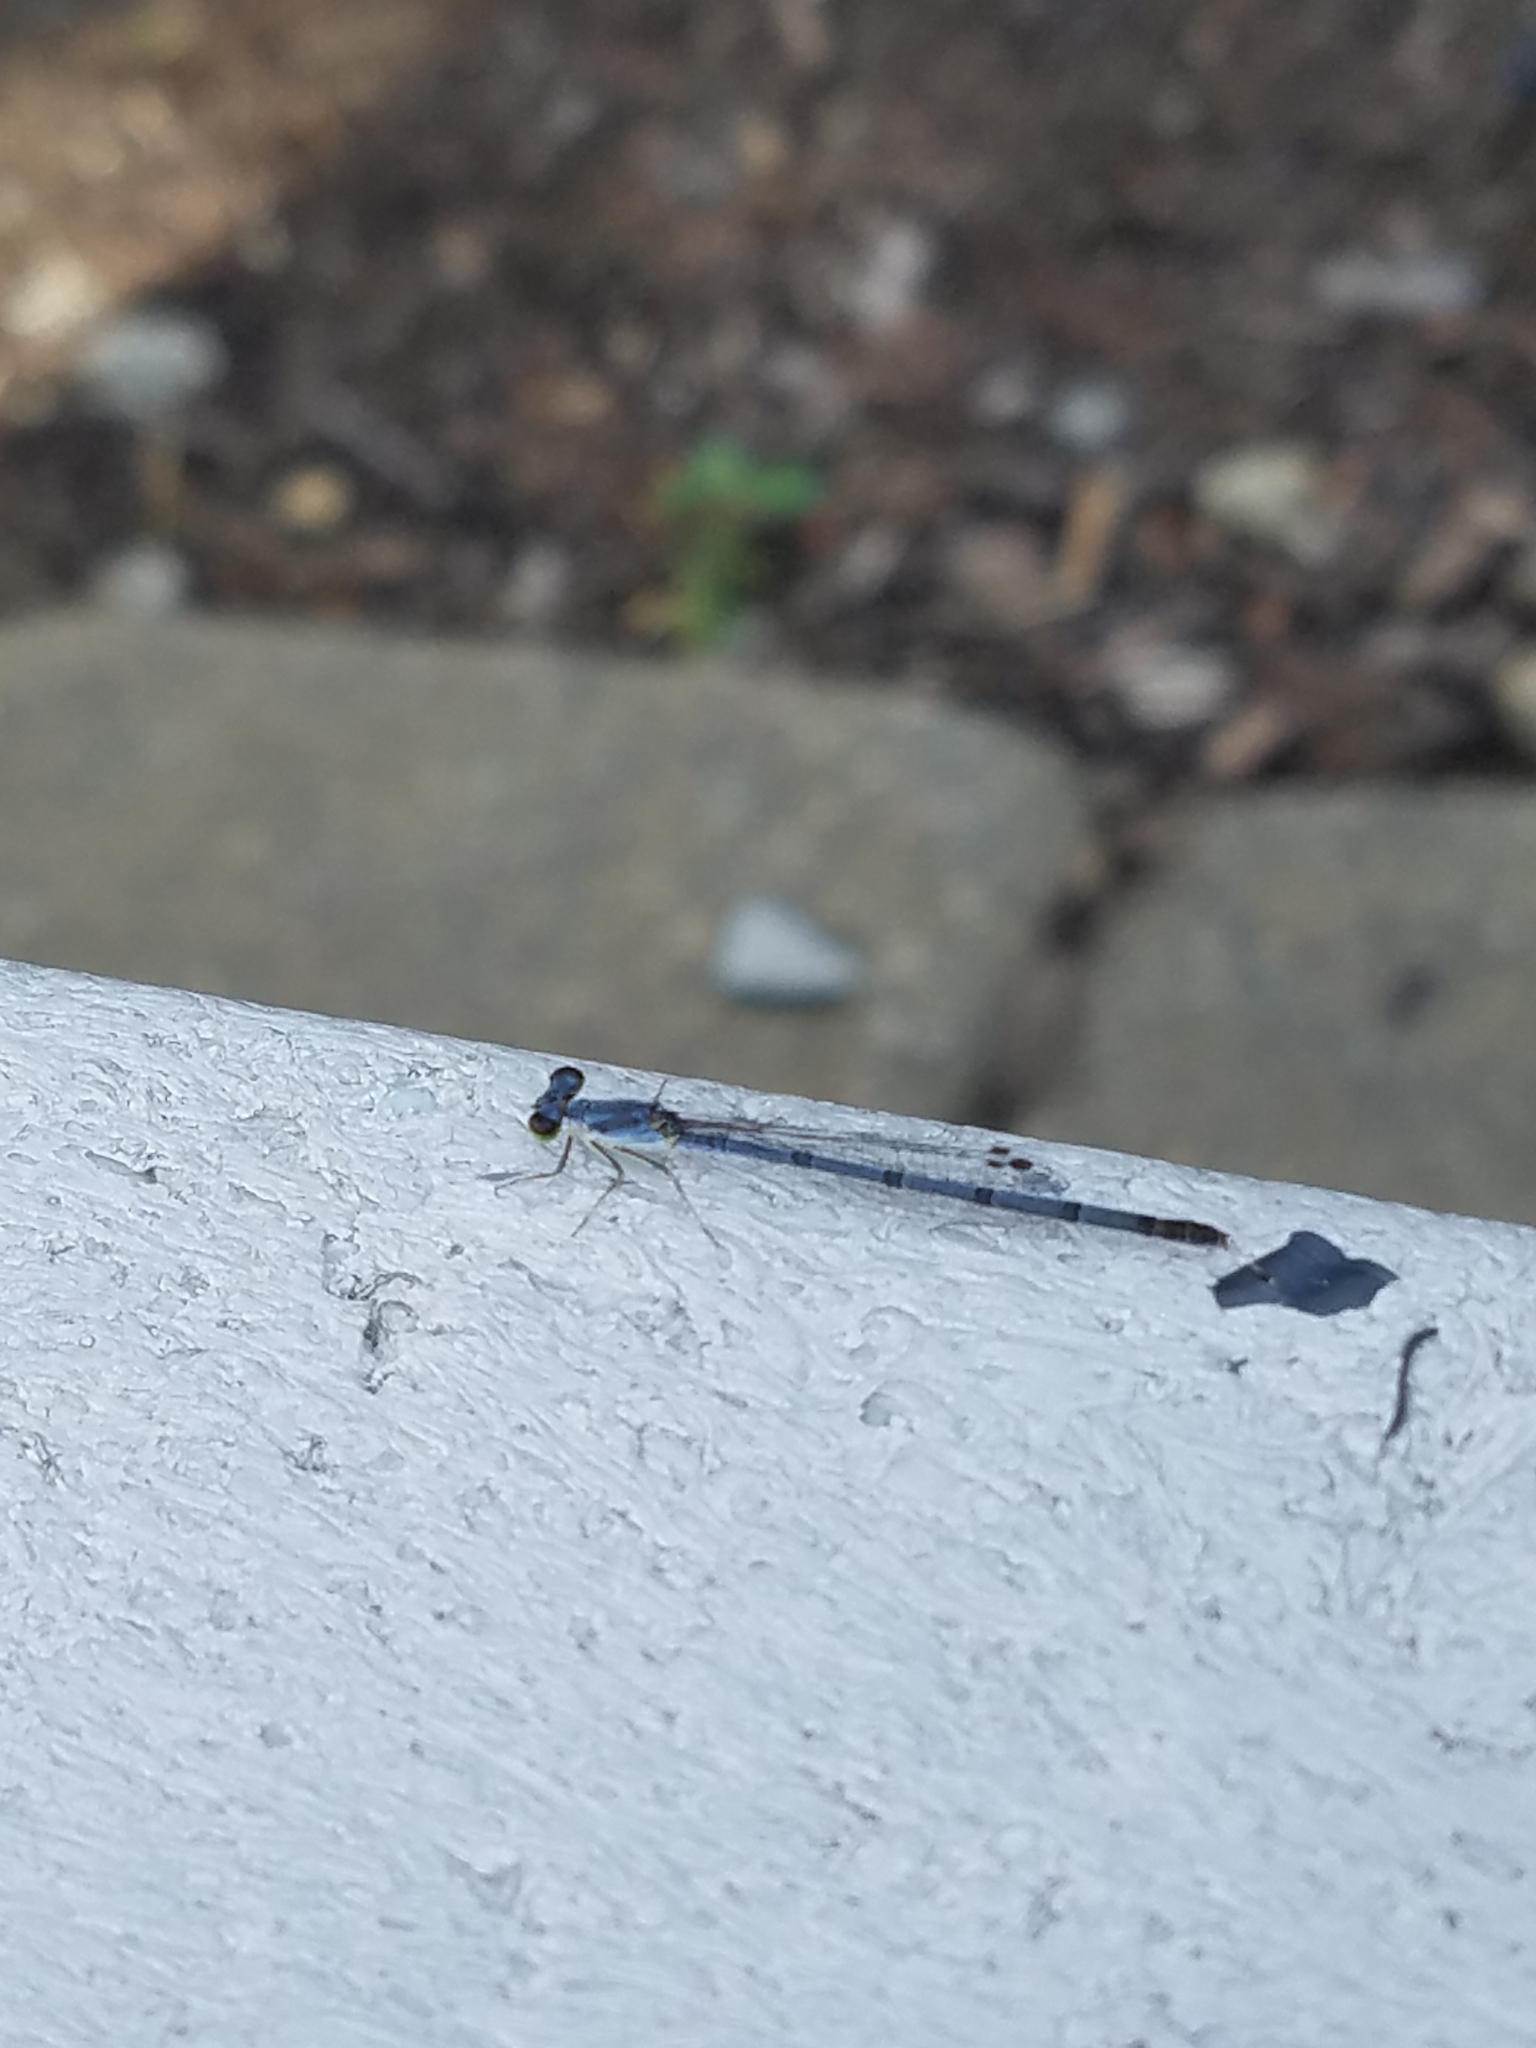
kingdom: Animalia
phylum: Arthropoda
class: Insecta
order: Odonata
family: Coenagrionidae
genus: Ischnura
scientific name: Ischnura posita
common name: Fragile forktail
